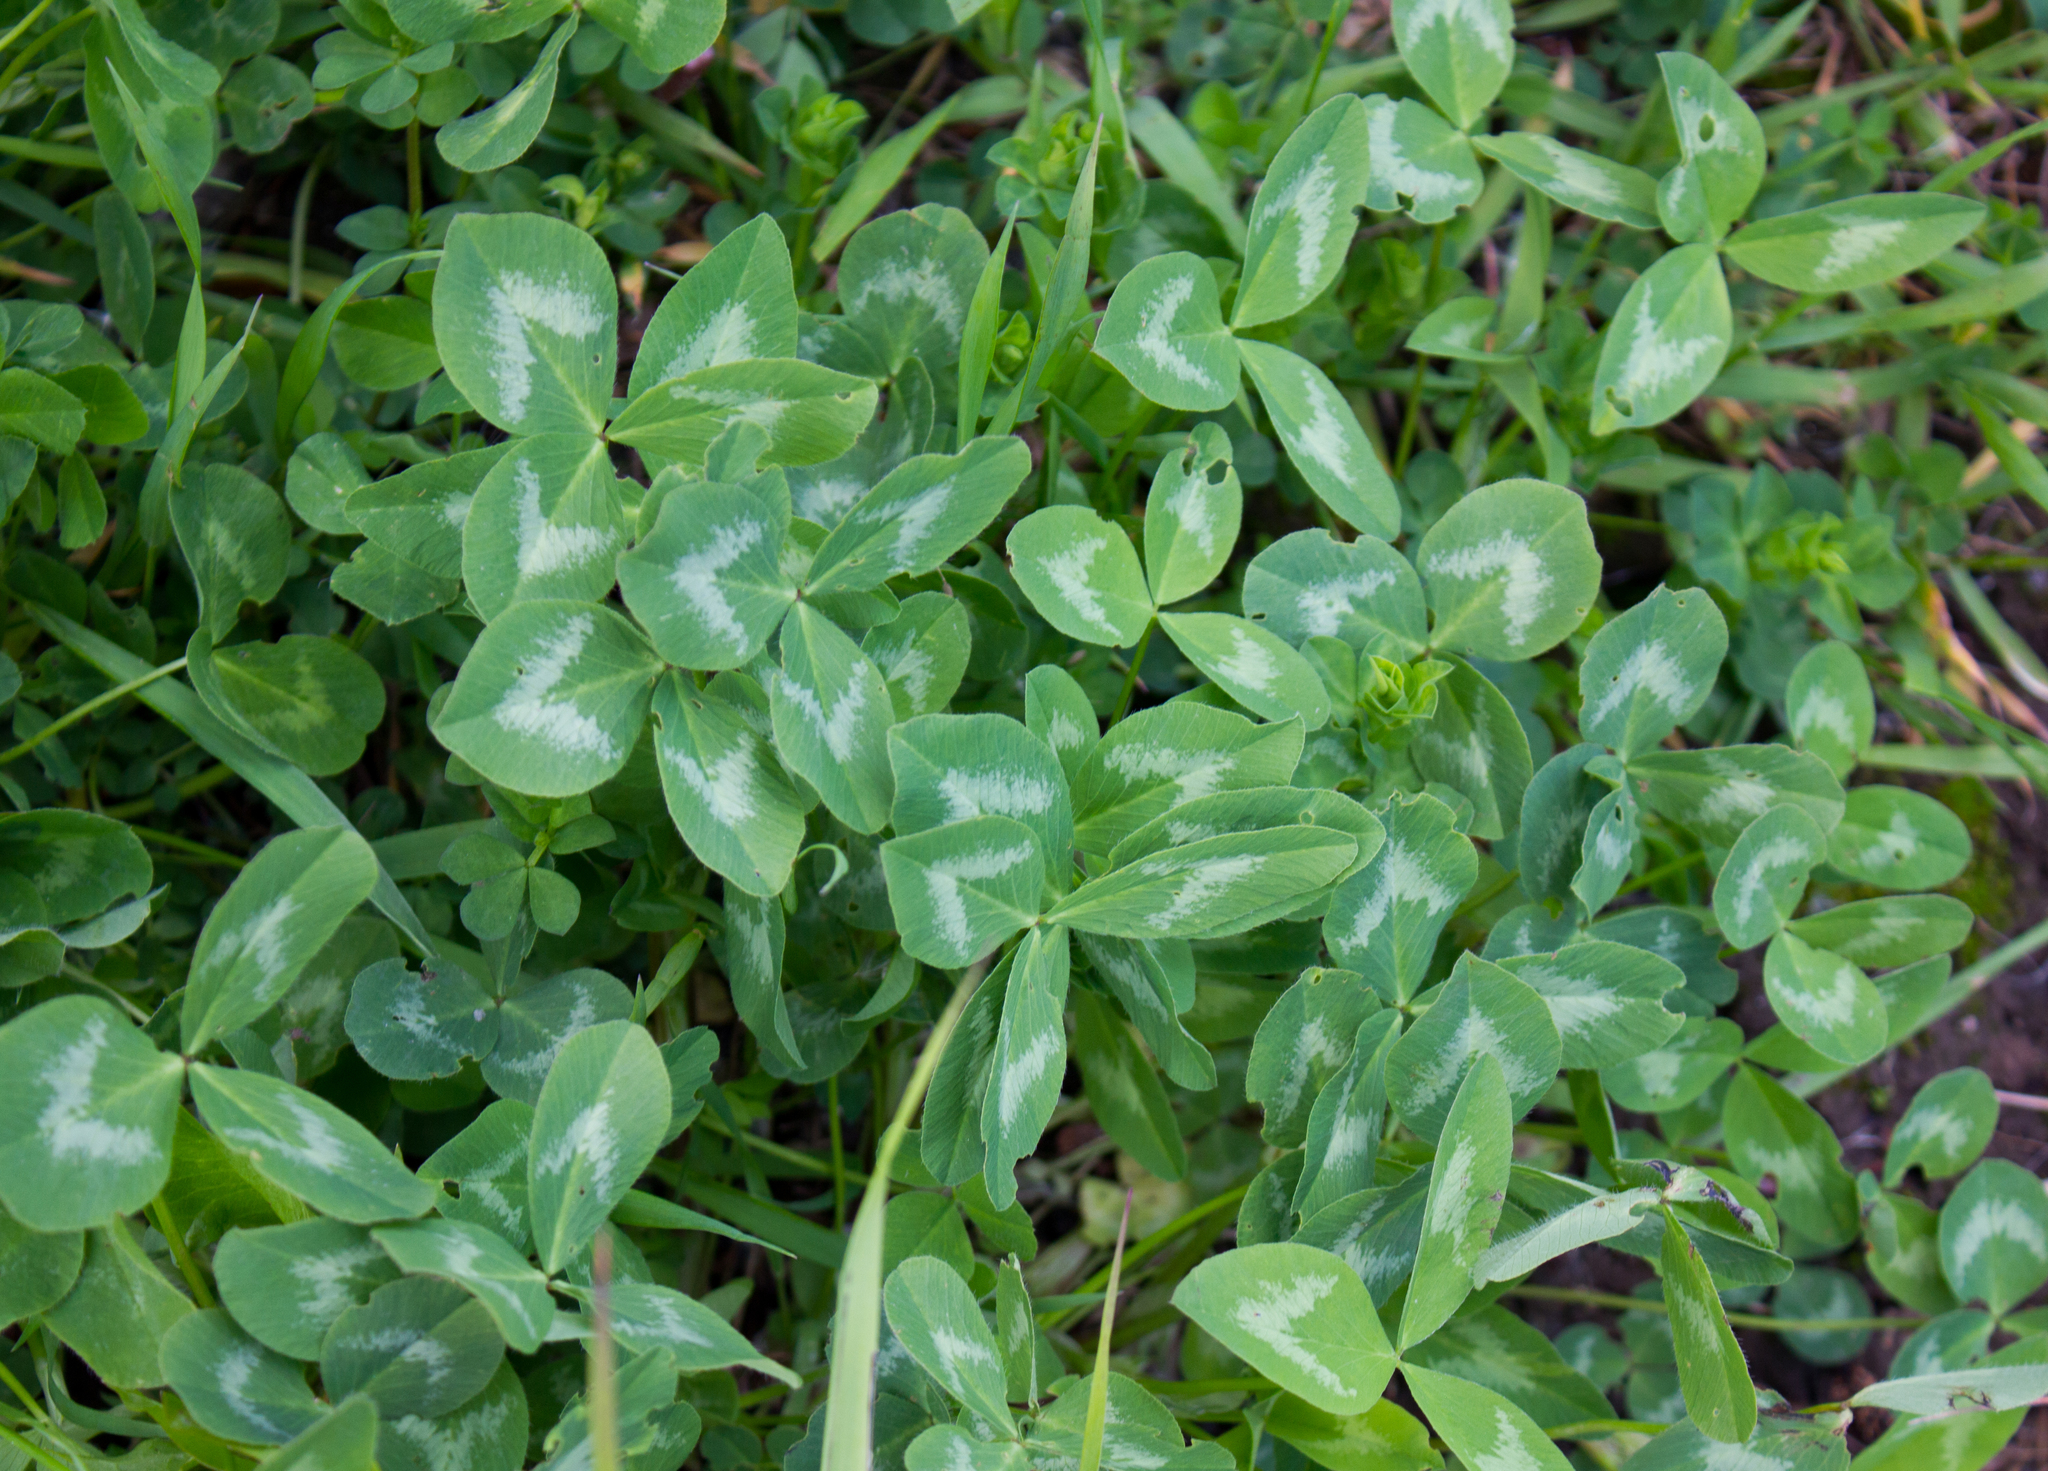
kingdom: Plantae
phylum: Tracheophyta
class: Magnoliopsida
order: Fabales
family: Fabaceae
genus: Trifolium
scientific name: Trifolium pratense
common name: Red clover
